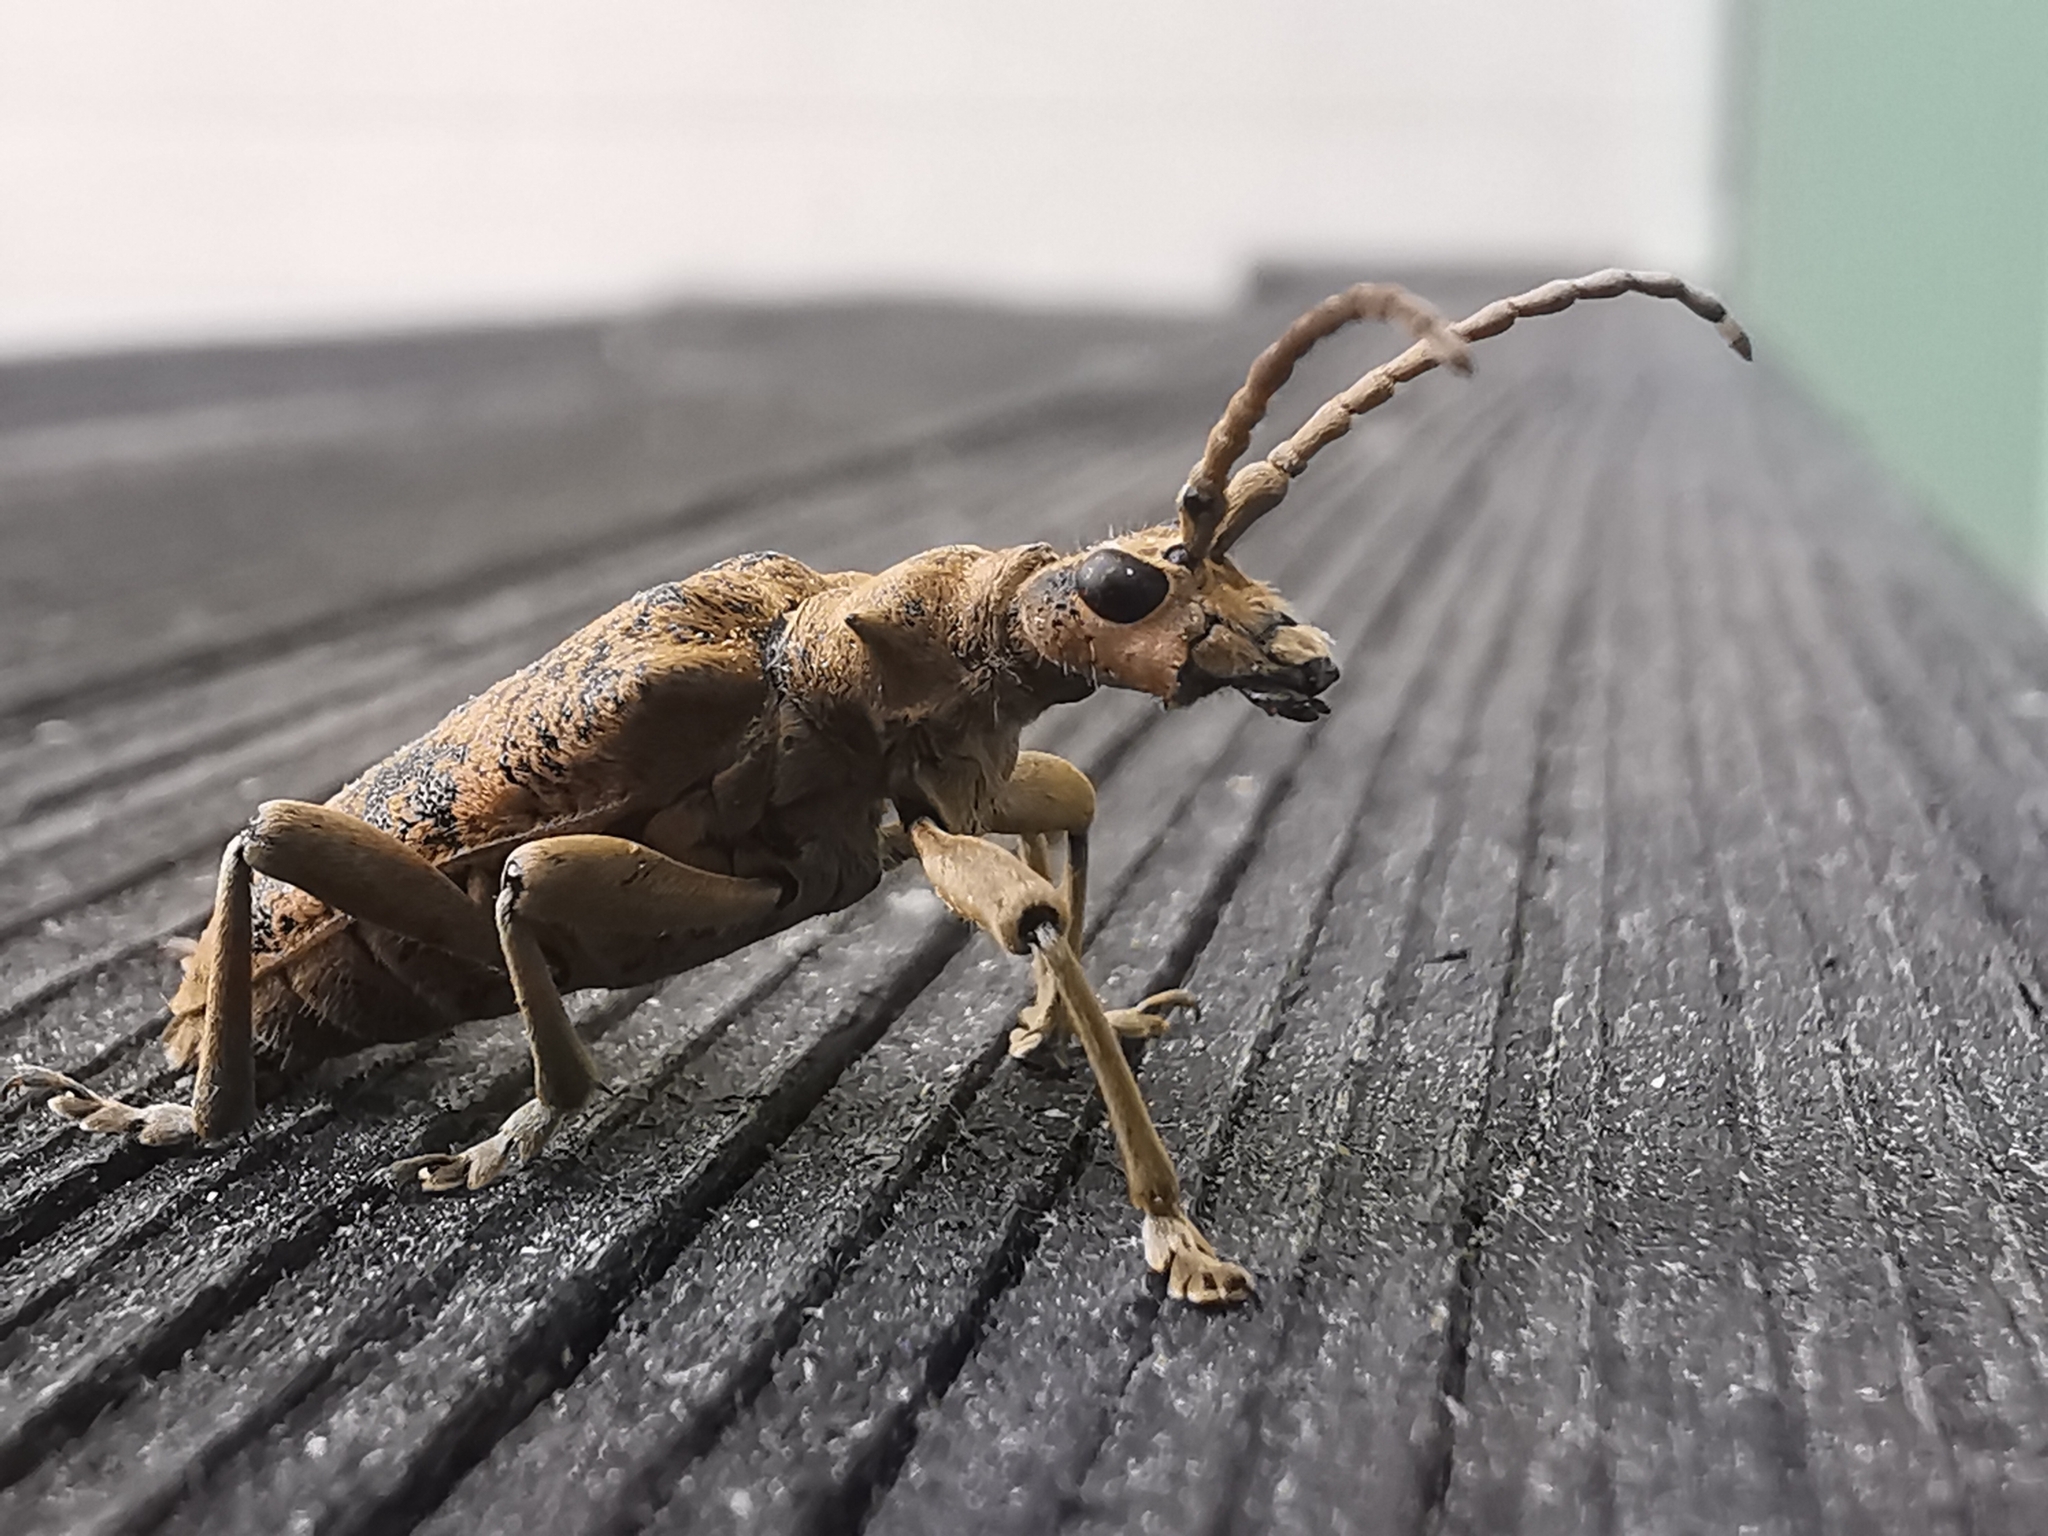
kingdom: Animalia
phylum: Arthropoda
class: Insecta
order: Coleoptera
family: Cerambycidae
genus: Rhagium
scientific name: Rhagium sycophanta
